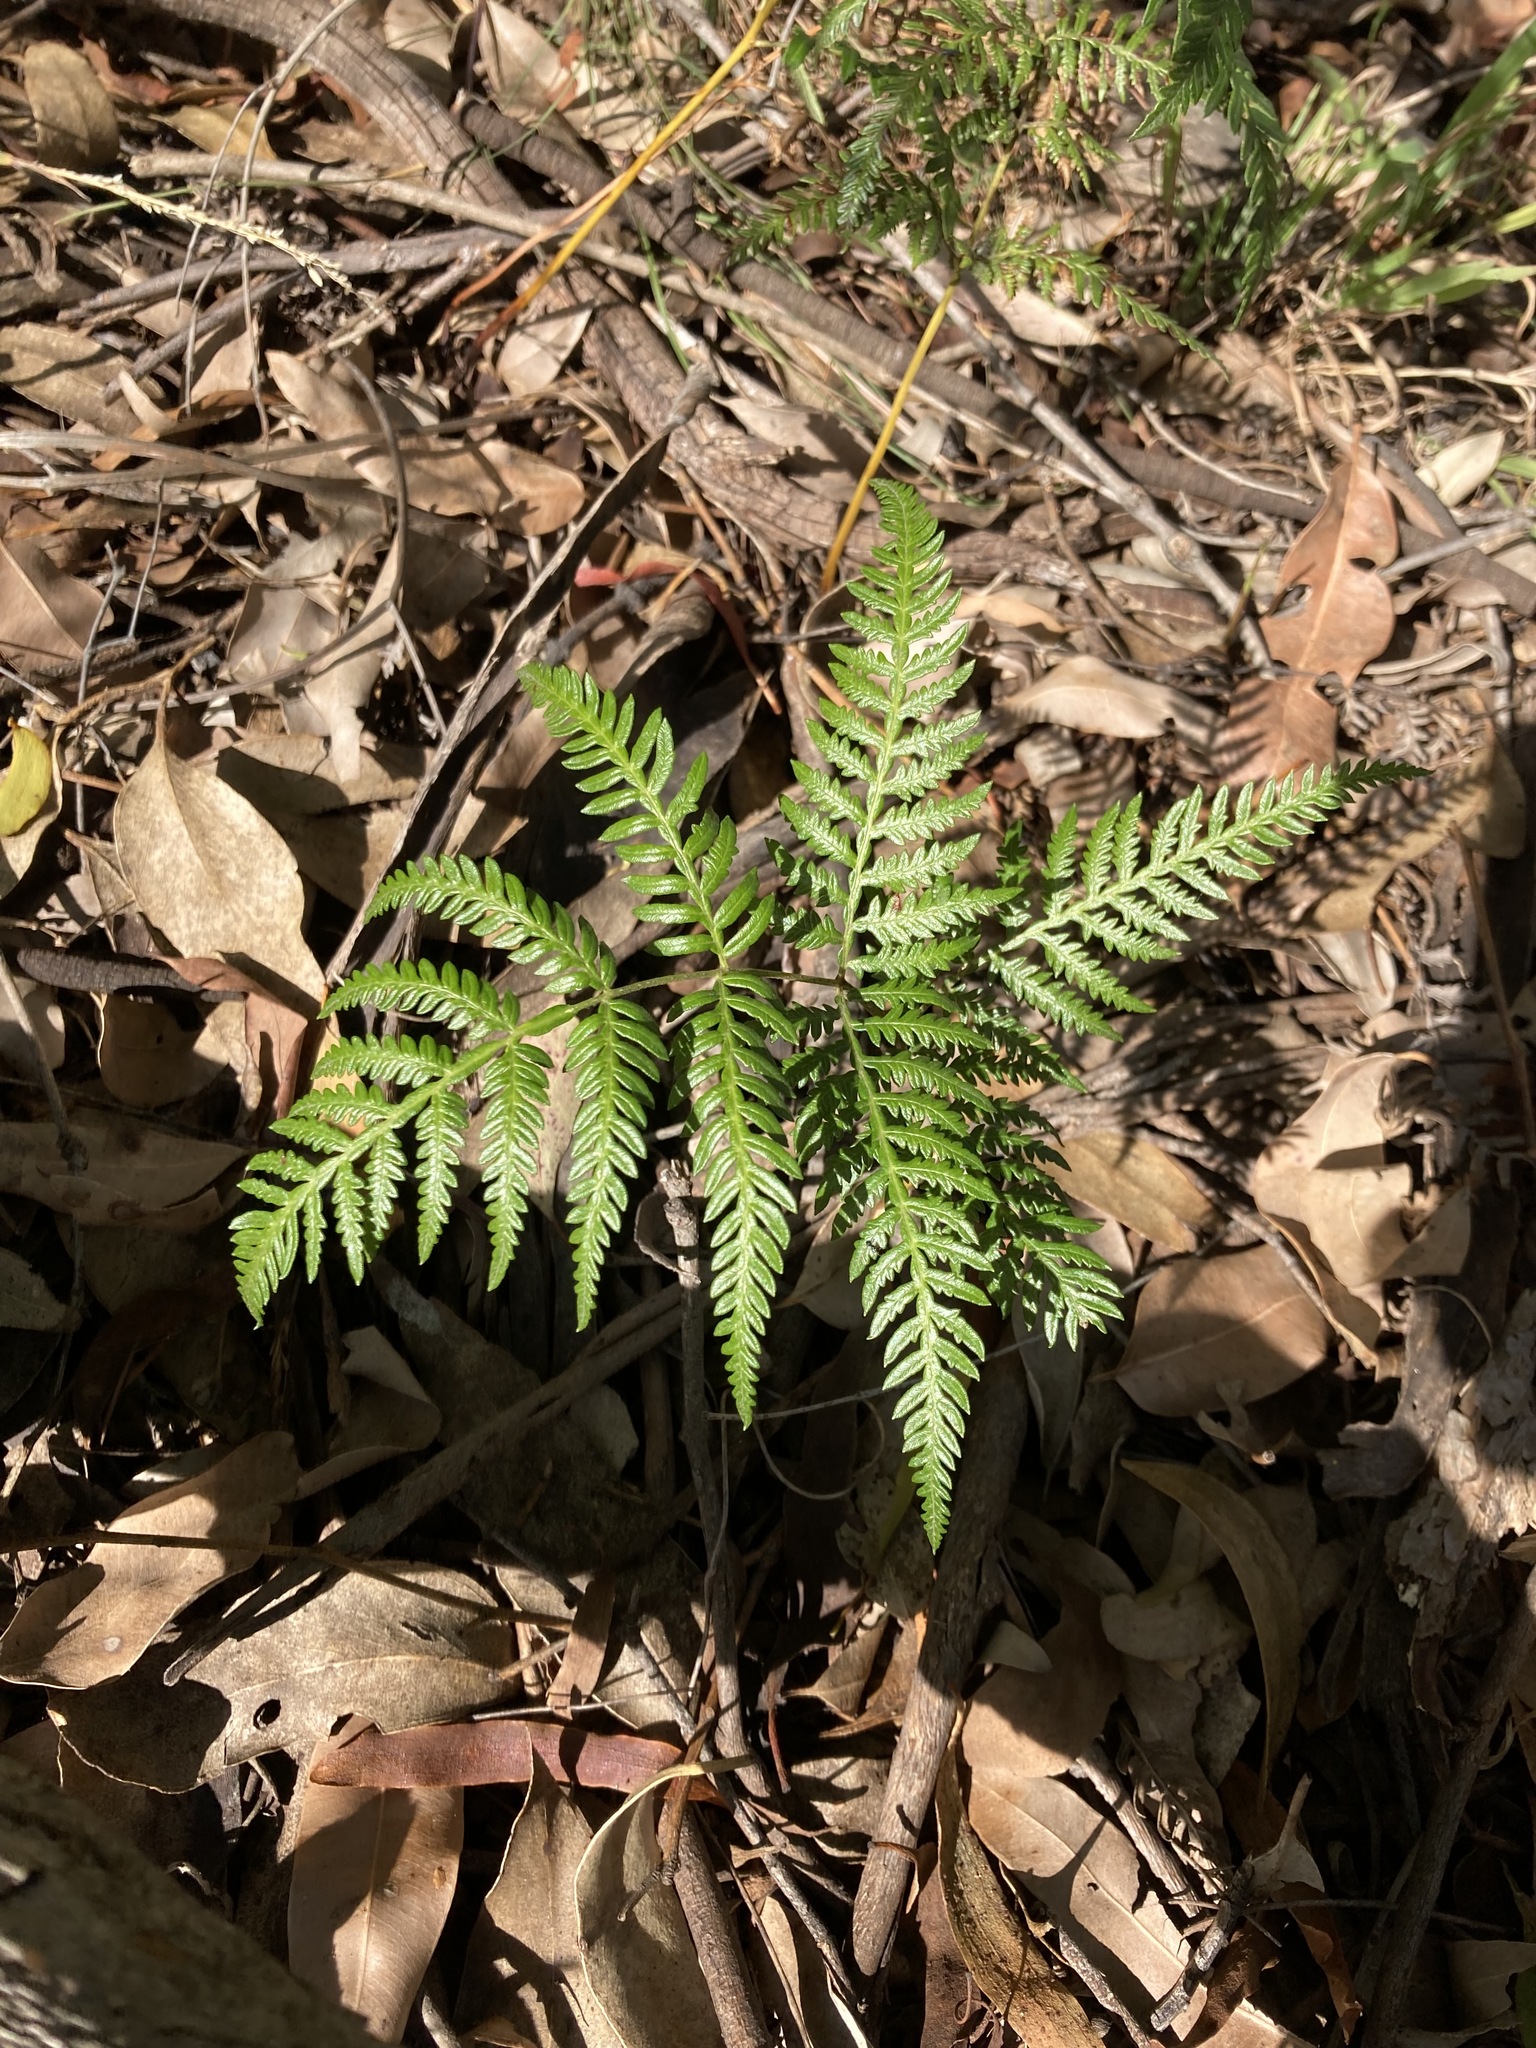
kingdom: Plantae
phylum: Tracheophyta
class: Polypodiopsida
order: Polypodiales
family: Dennstaedtiaceae
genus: Pteridium
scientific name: Pteridium esculentum
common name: Bracken fern
